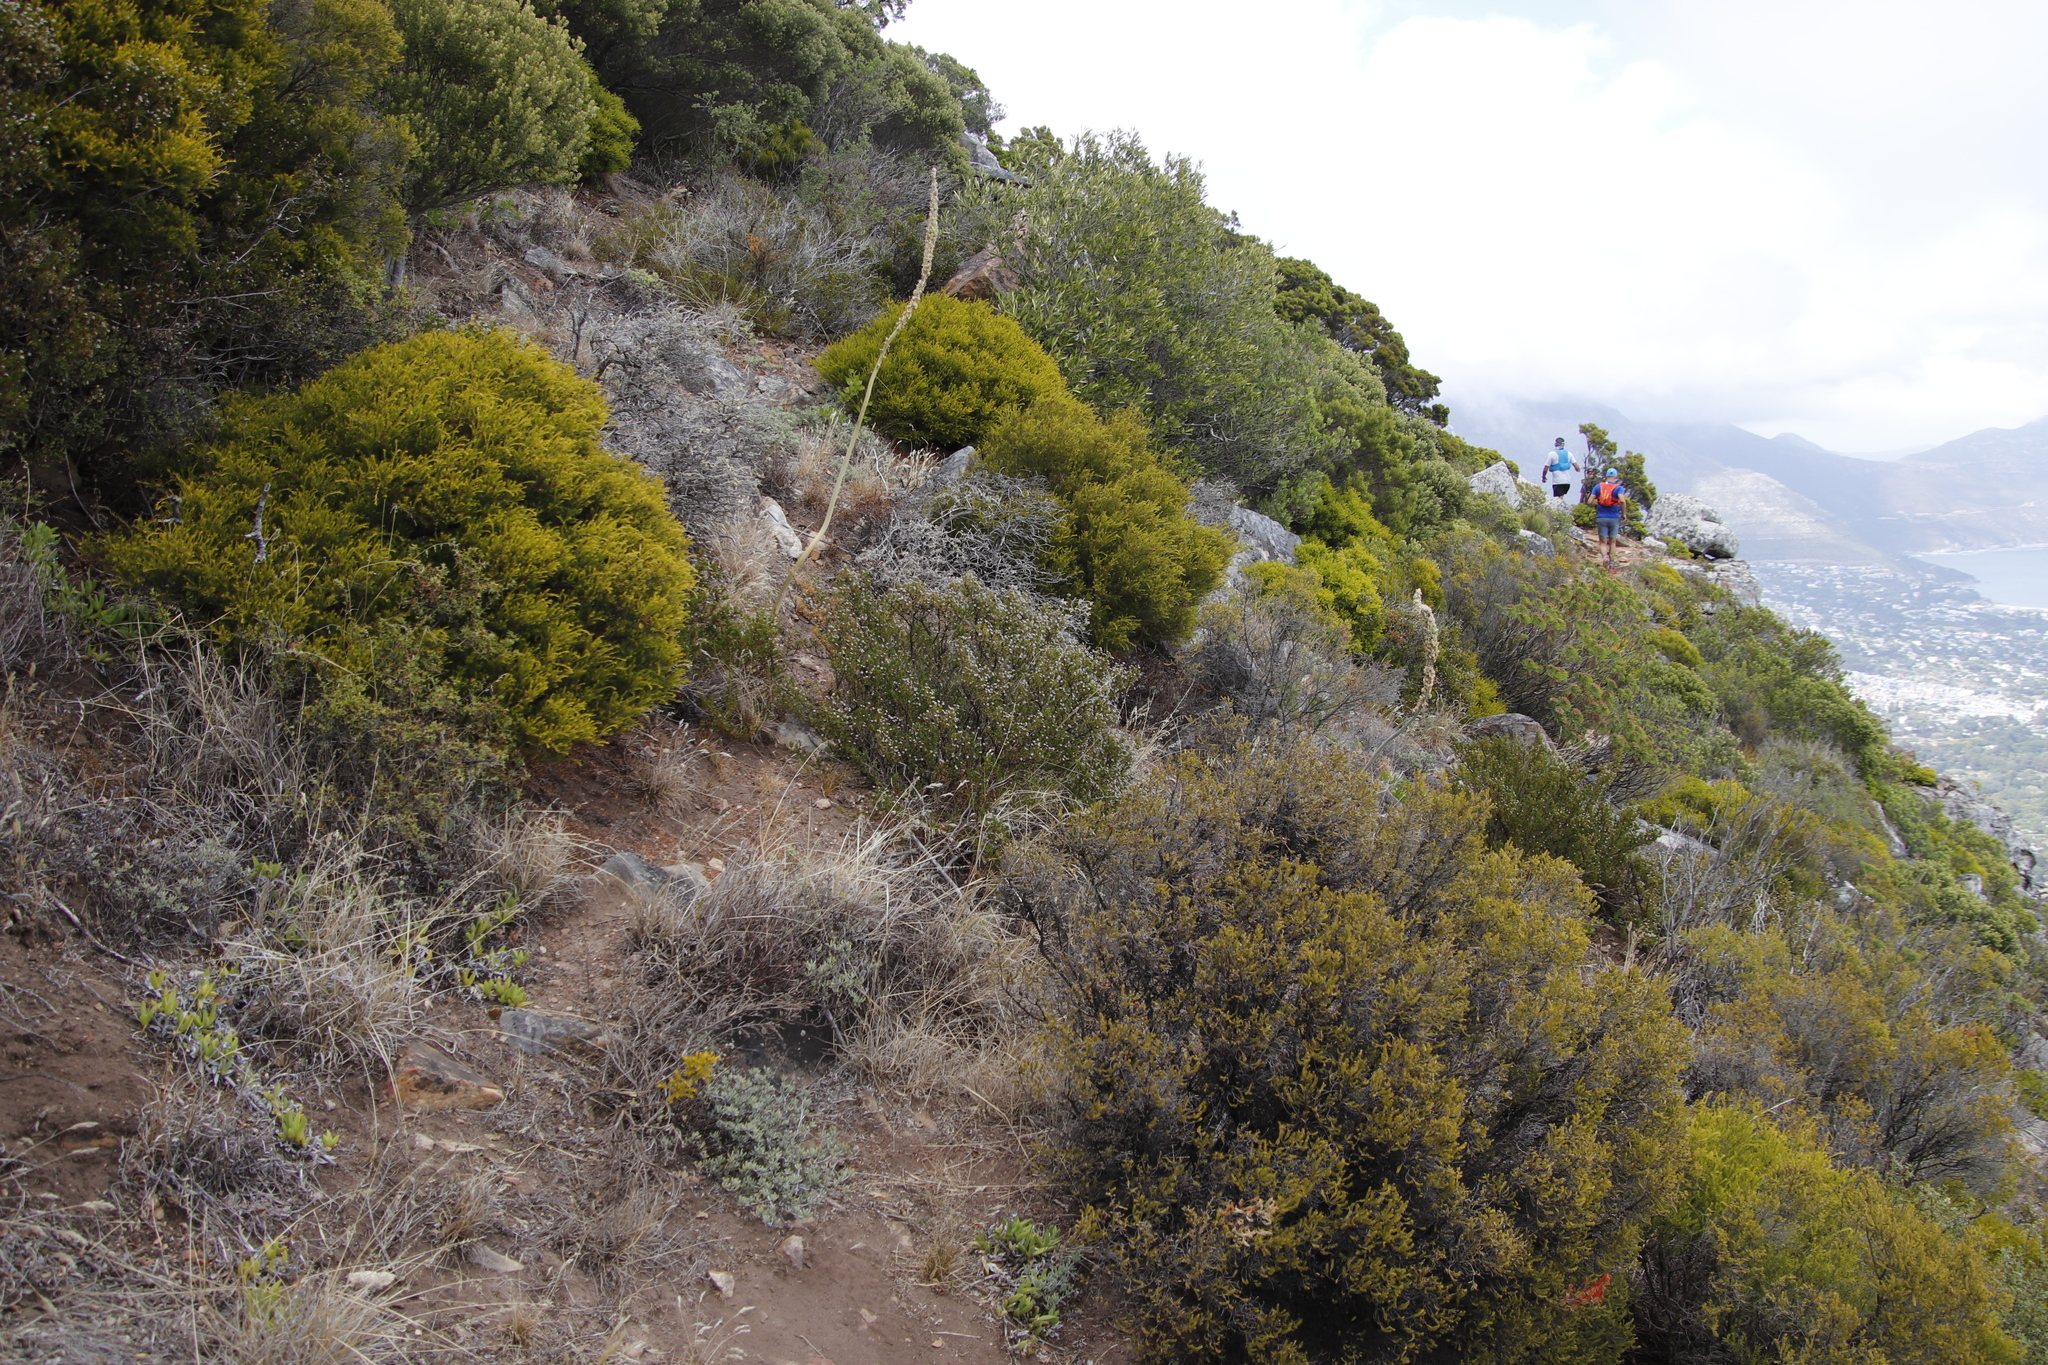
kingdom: Plantae
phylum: Tracheophyta
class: Liliopsida
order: Asparagales
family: Asparagaceae
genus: Drimia
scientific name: Drimia capensis
